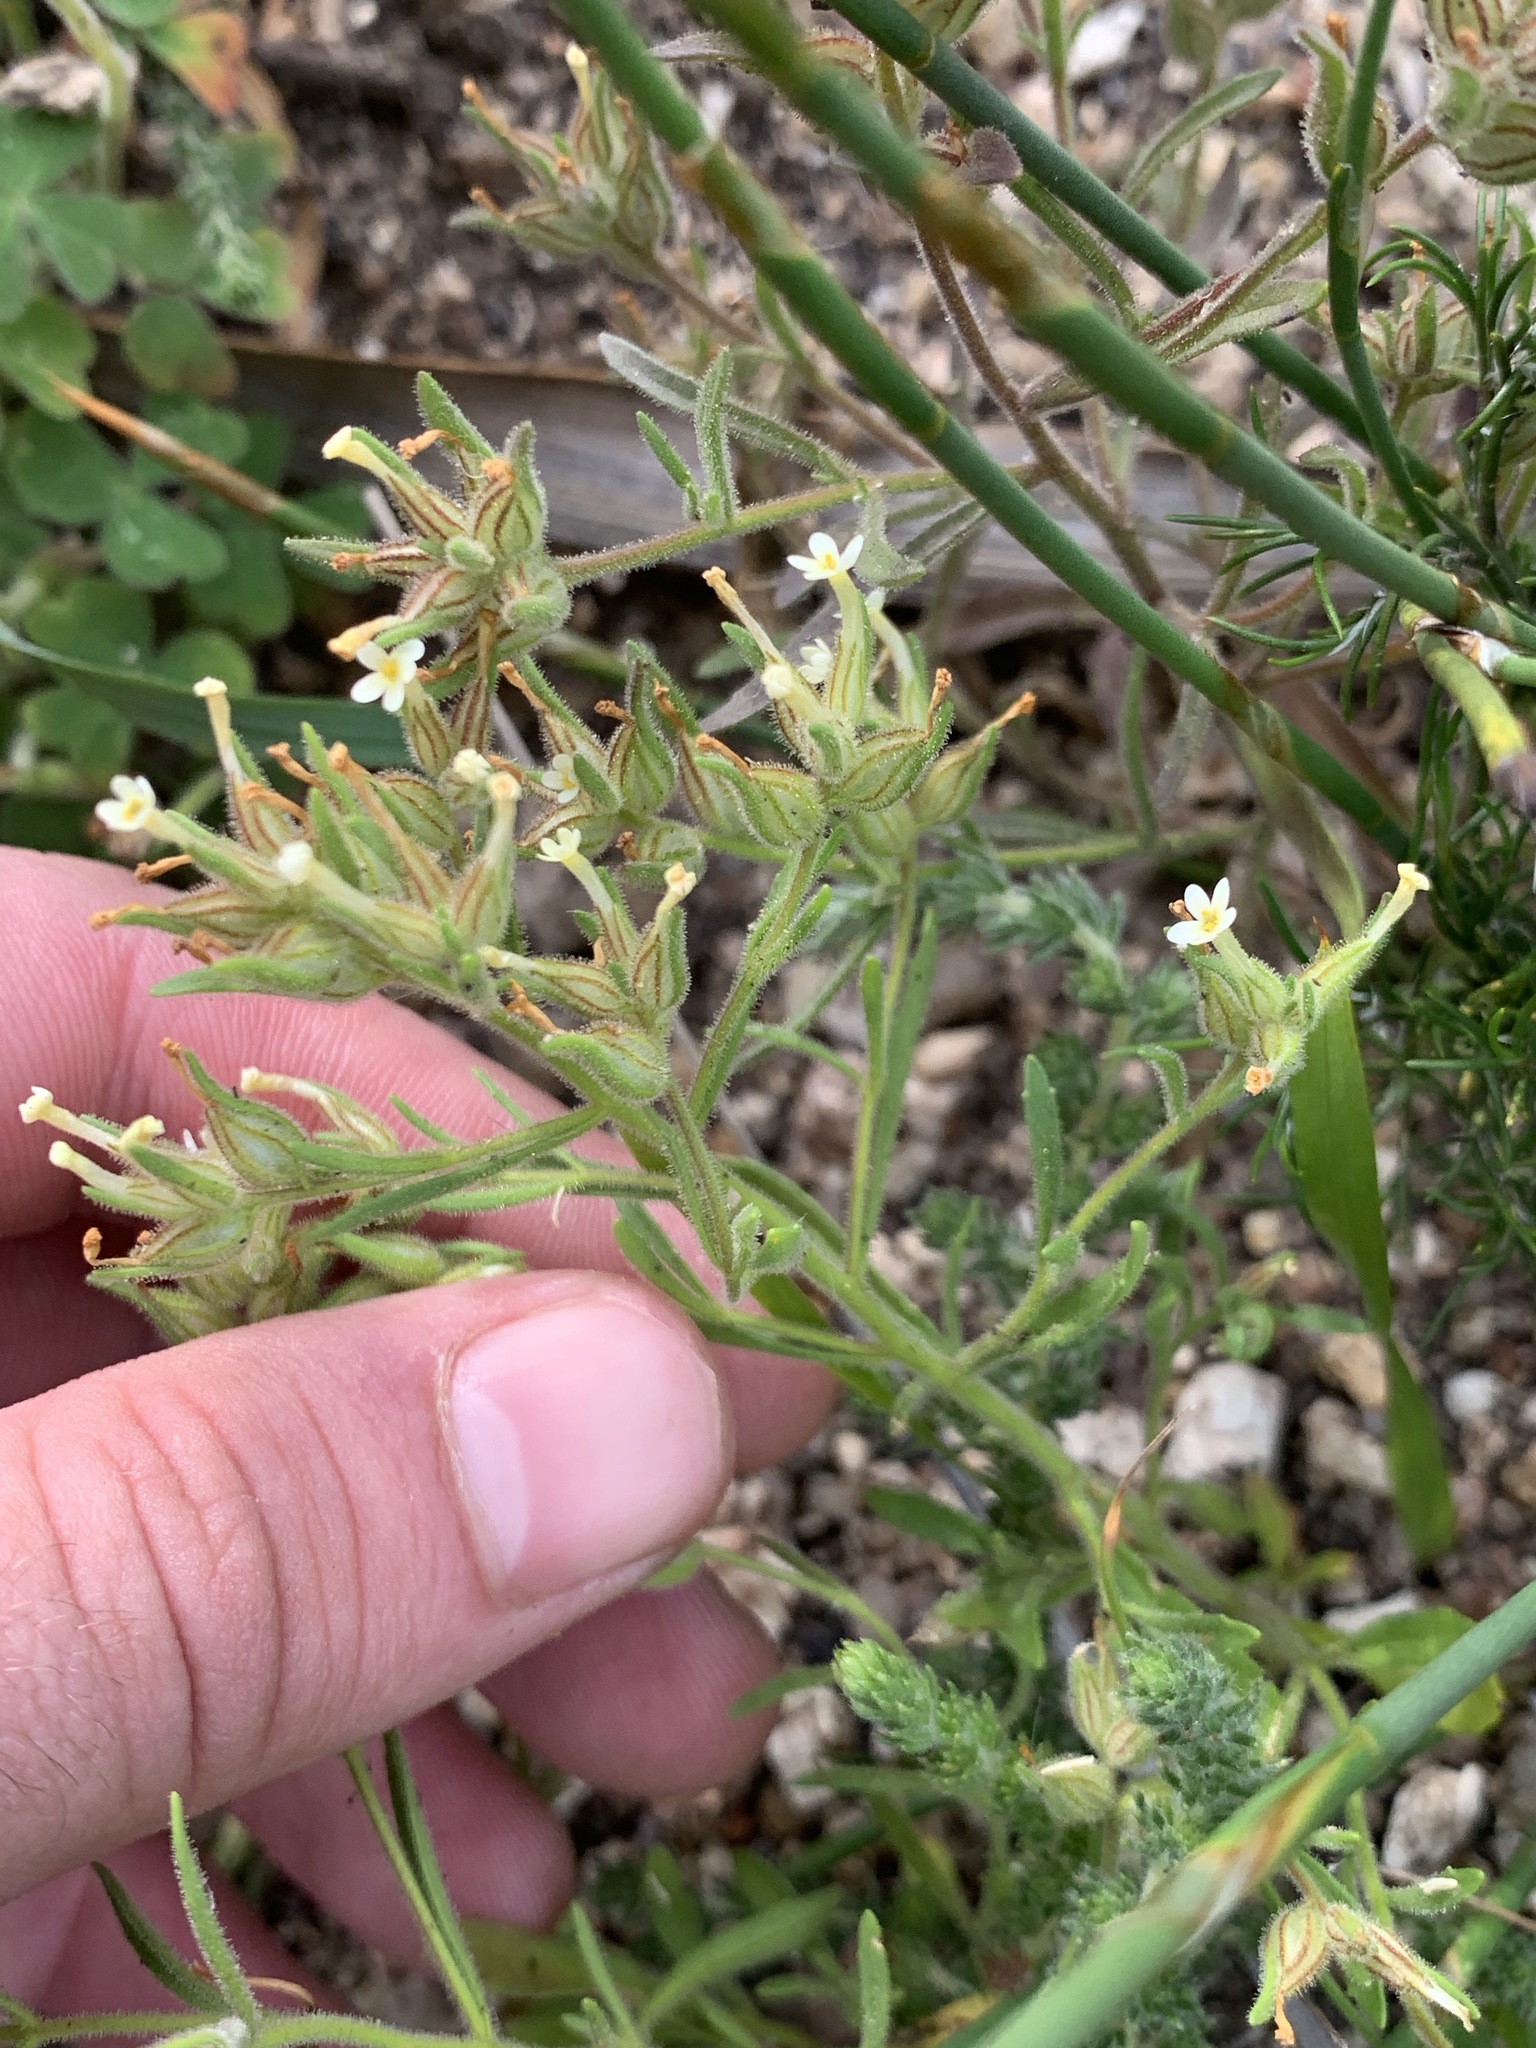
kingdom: Plantae
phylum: Tracheophyta
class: Magnoliopsida
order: Lamiales
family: Scrophulariaceae
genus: Polycarena
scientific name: Polycarena silenoides
